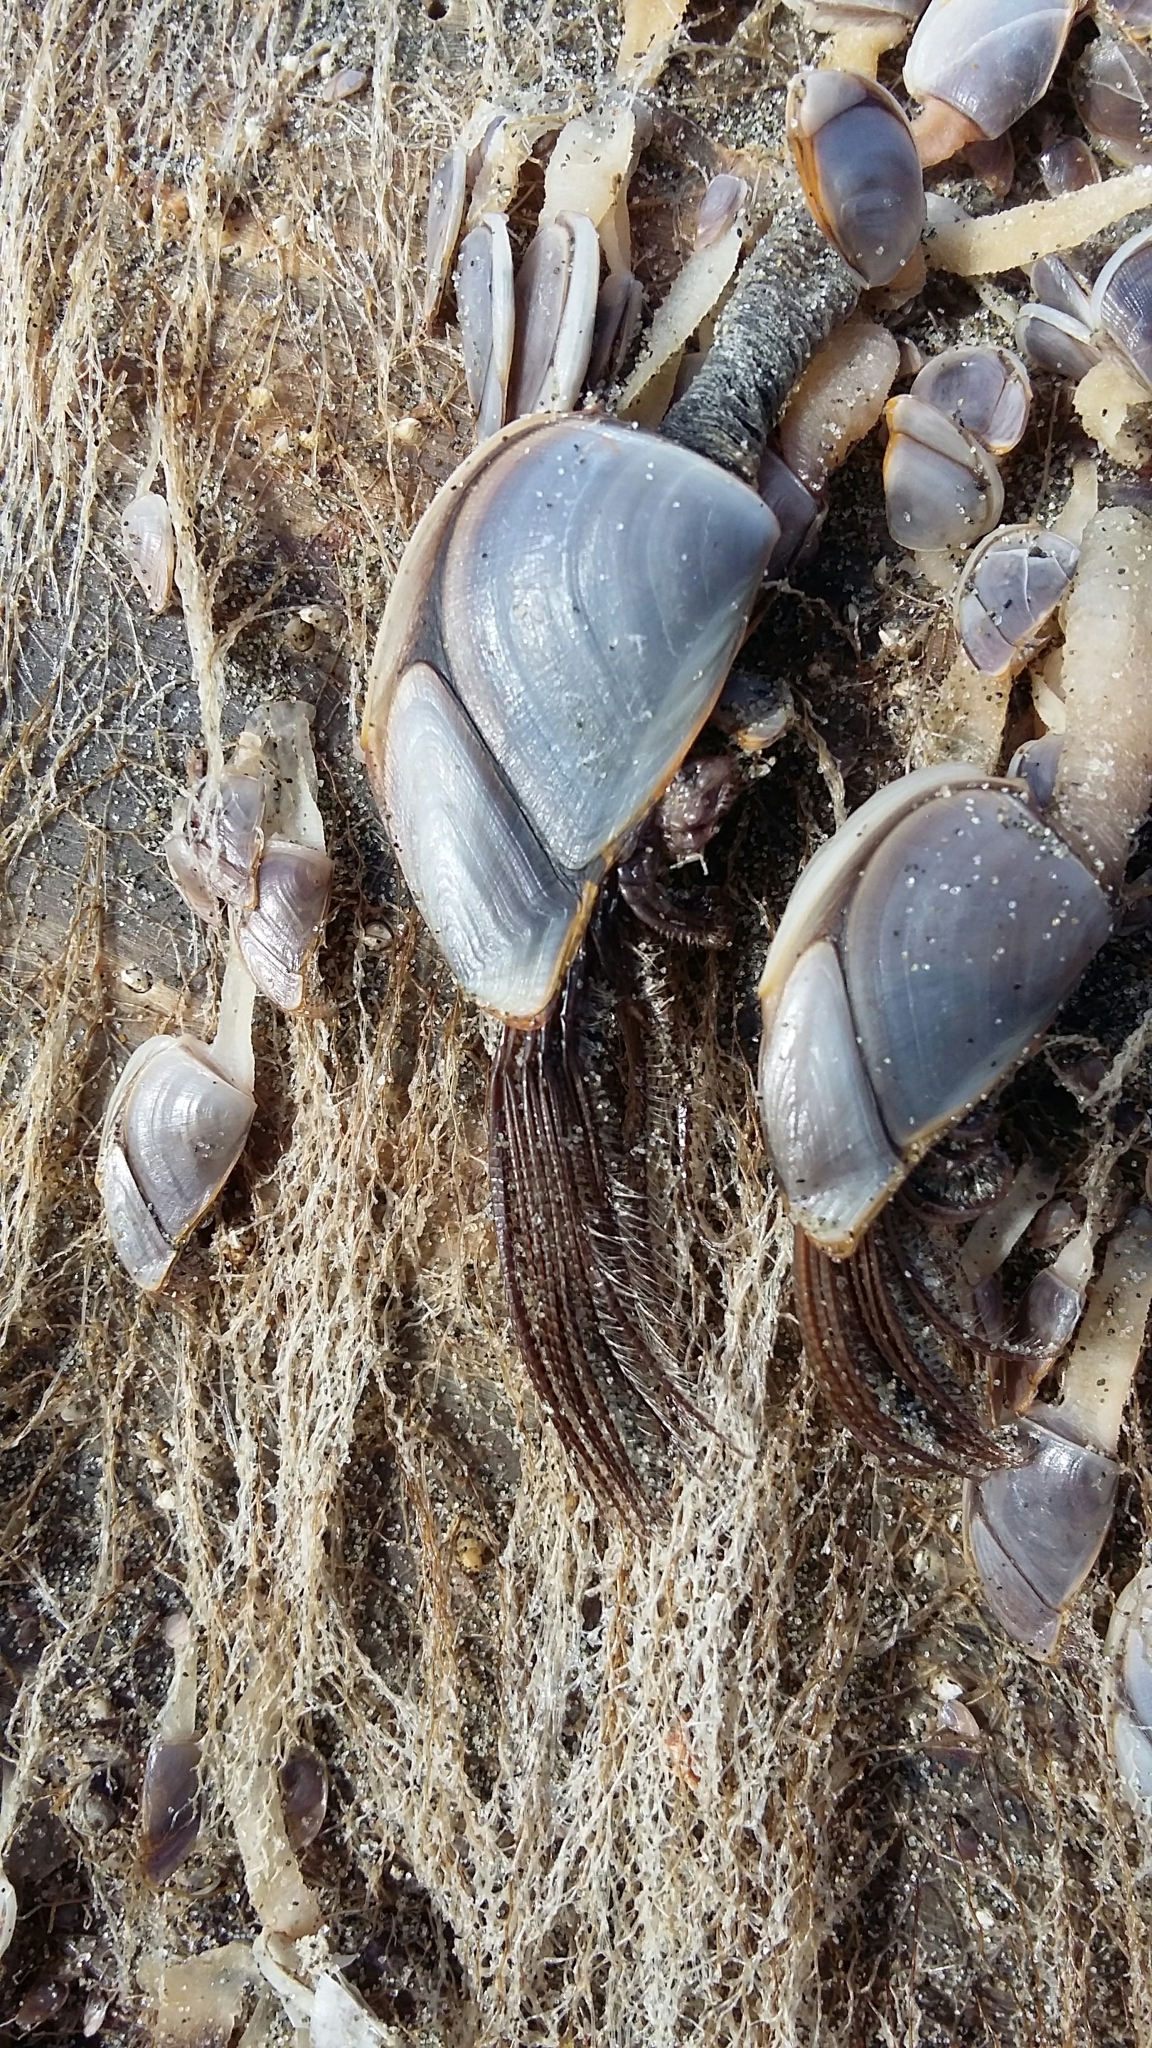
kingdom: Animalia
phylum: Arthropoda
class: Maxillopoda
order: Pedunculata
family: Lepadidae
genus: Lepas
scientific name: Lepas anatifera
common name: Common goose barnacle
